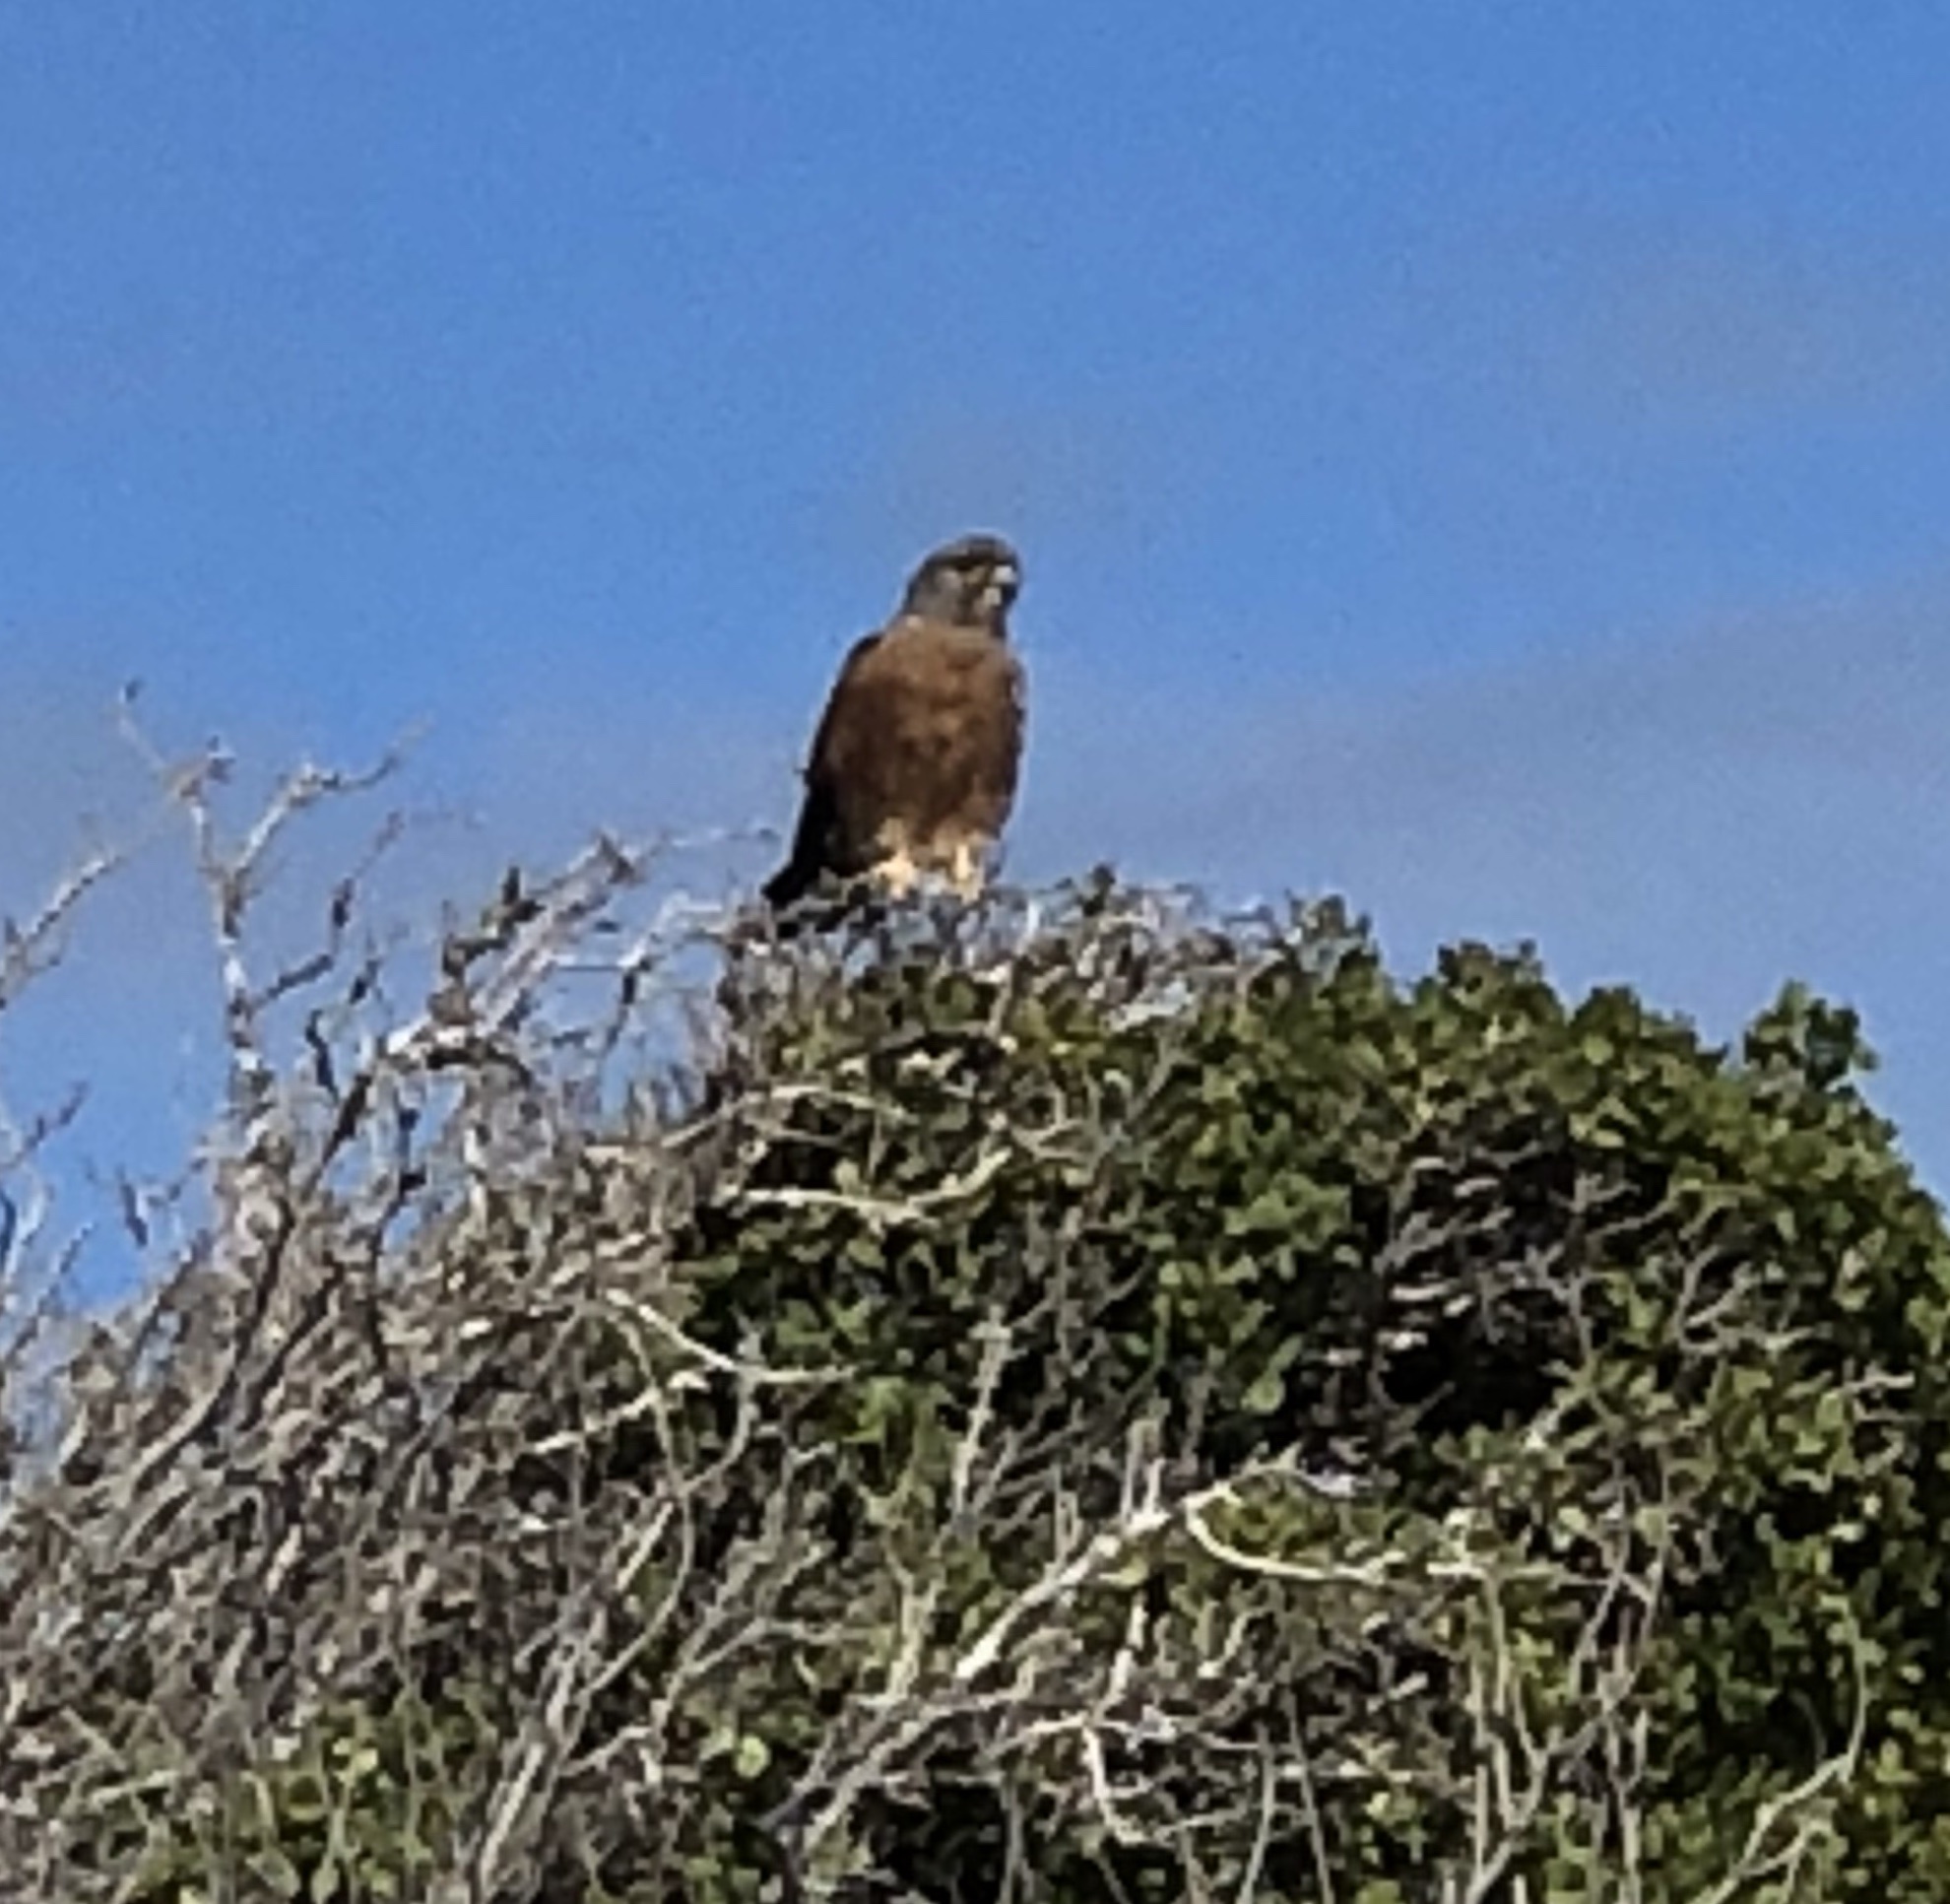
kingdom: Animalia
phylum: Chordata
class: Aves
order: Falconiformes
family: Falconidae
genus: Falco
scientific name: Falco rupicolus
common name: Rock kestrel
